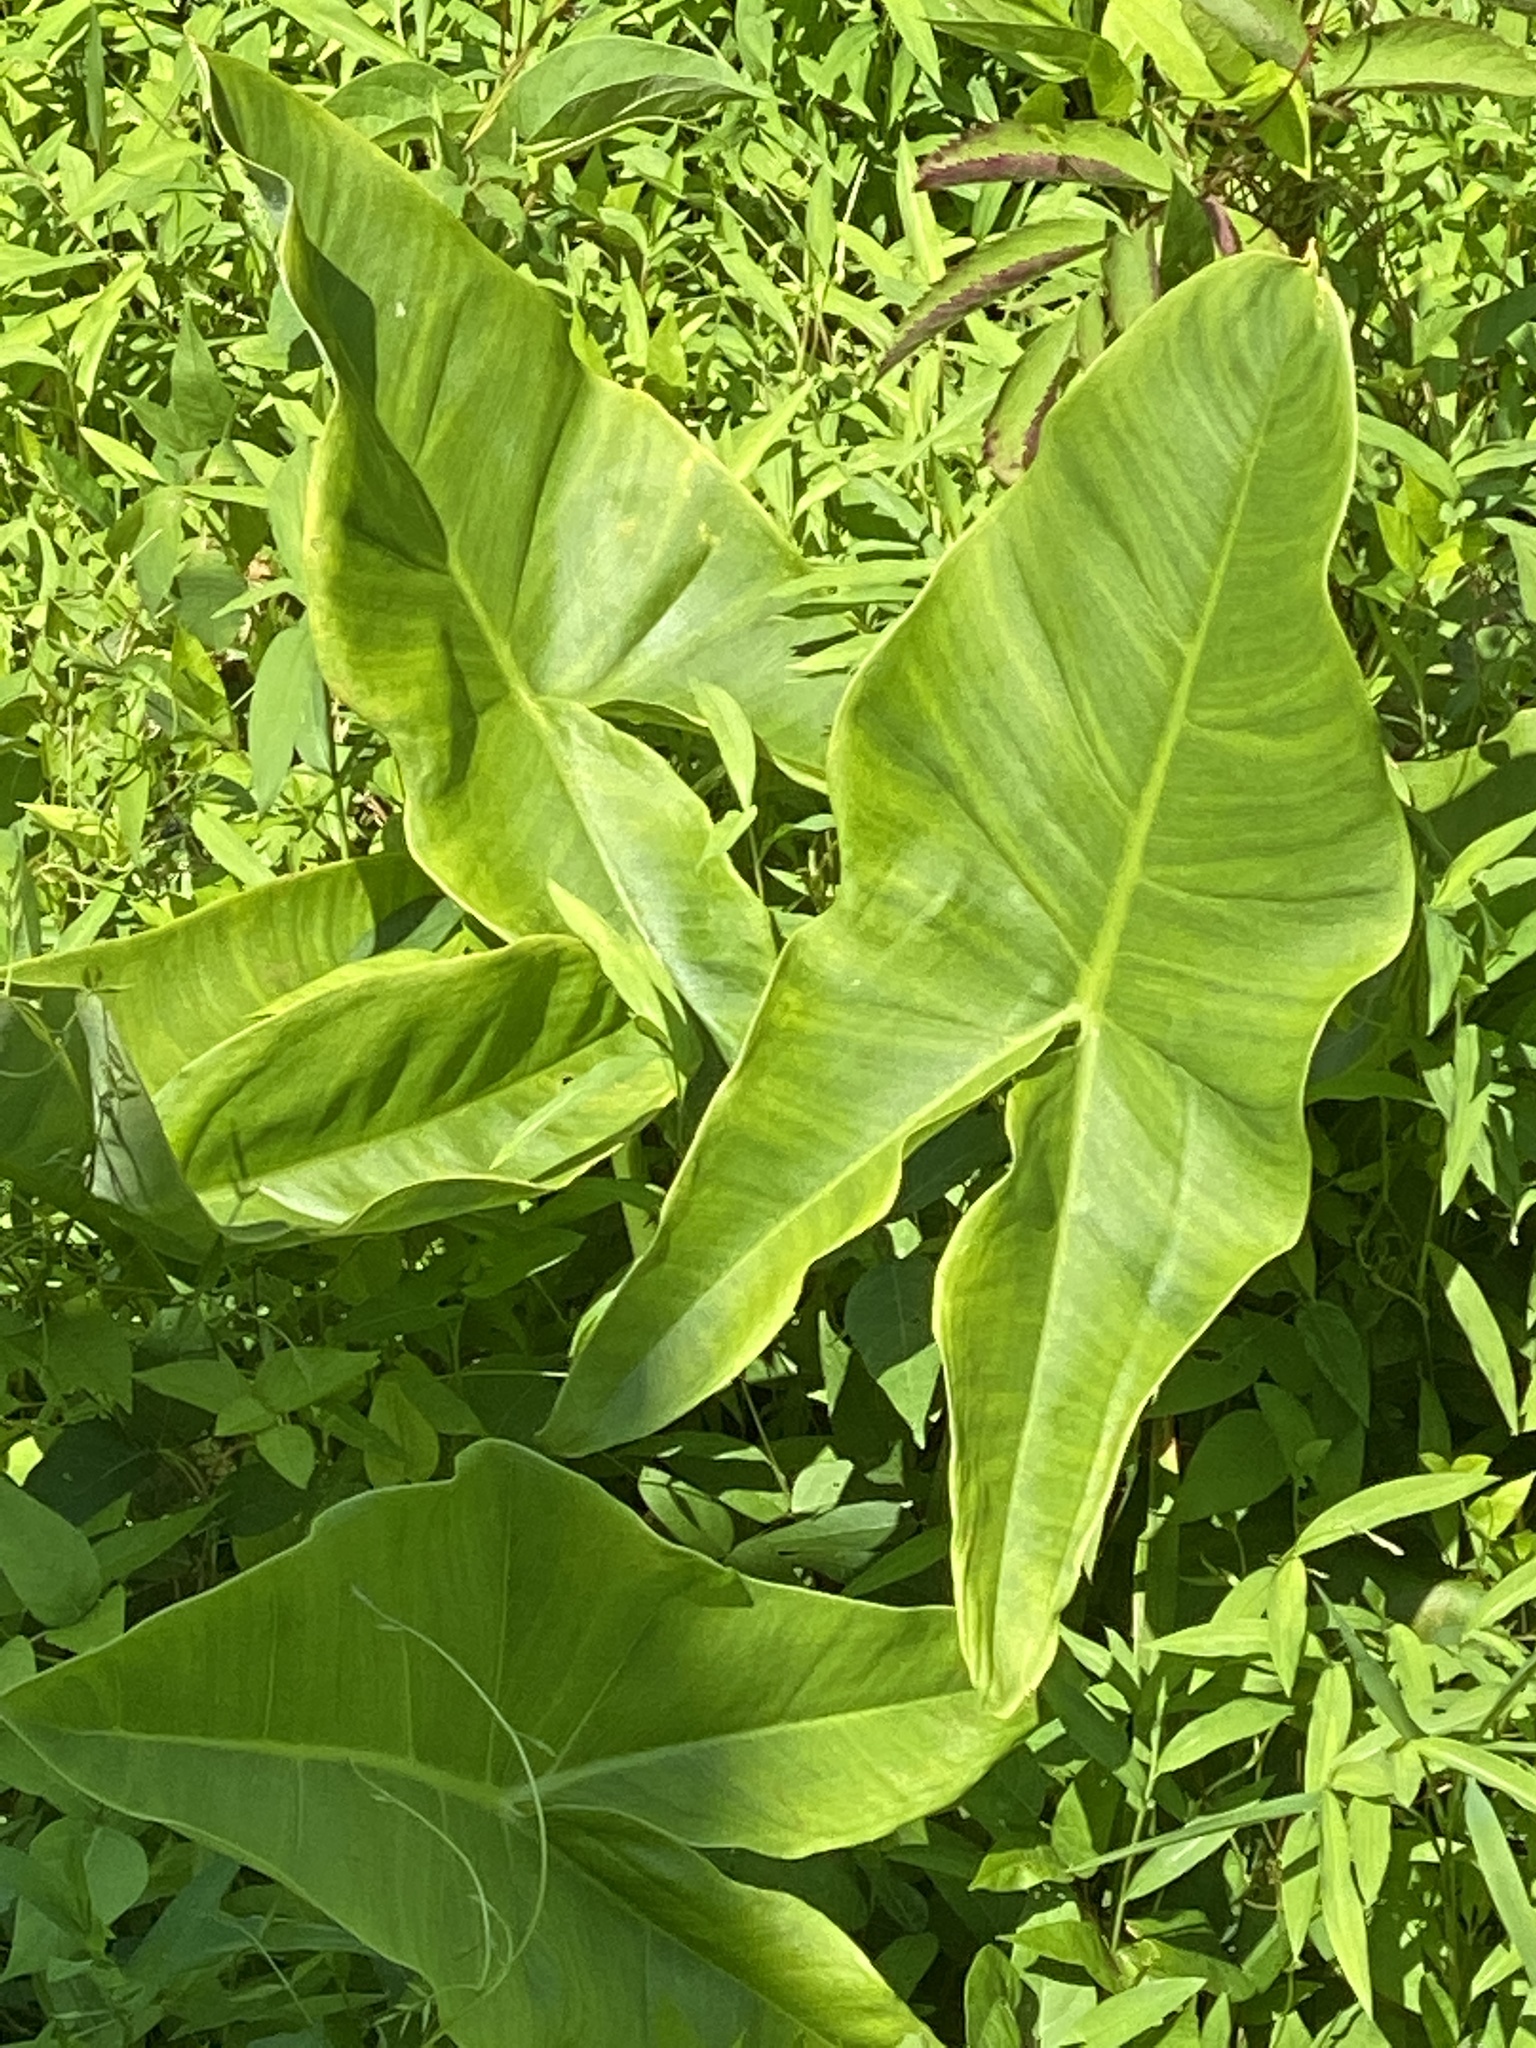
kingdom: Plantae
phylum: Tracheophyta
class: Liliopsida
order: Alismatales
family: Araceae
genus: Peltandra
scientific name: Peltandra virginica
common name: Arrow arum
